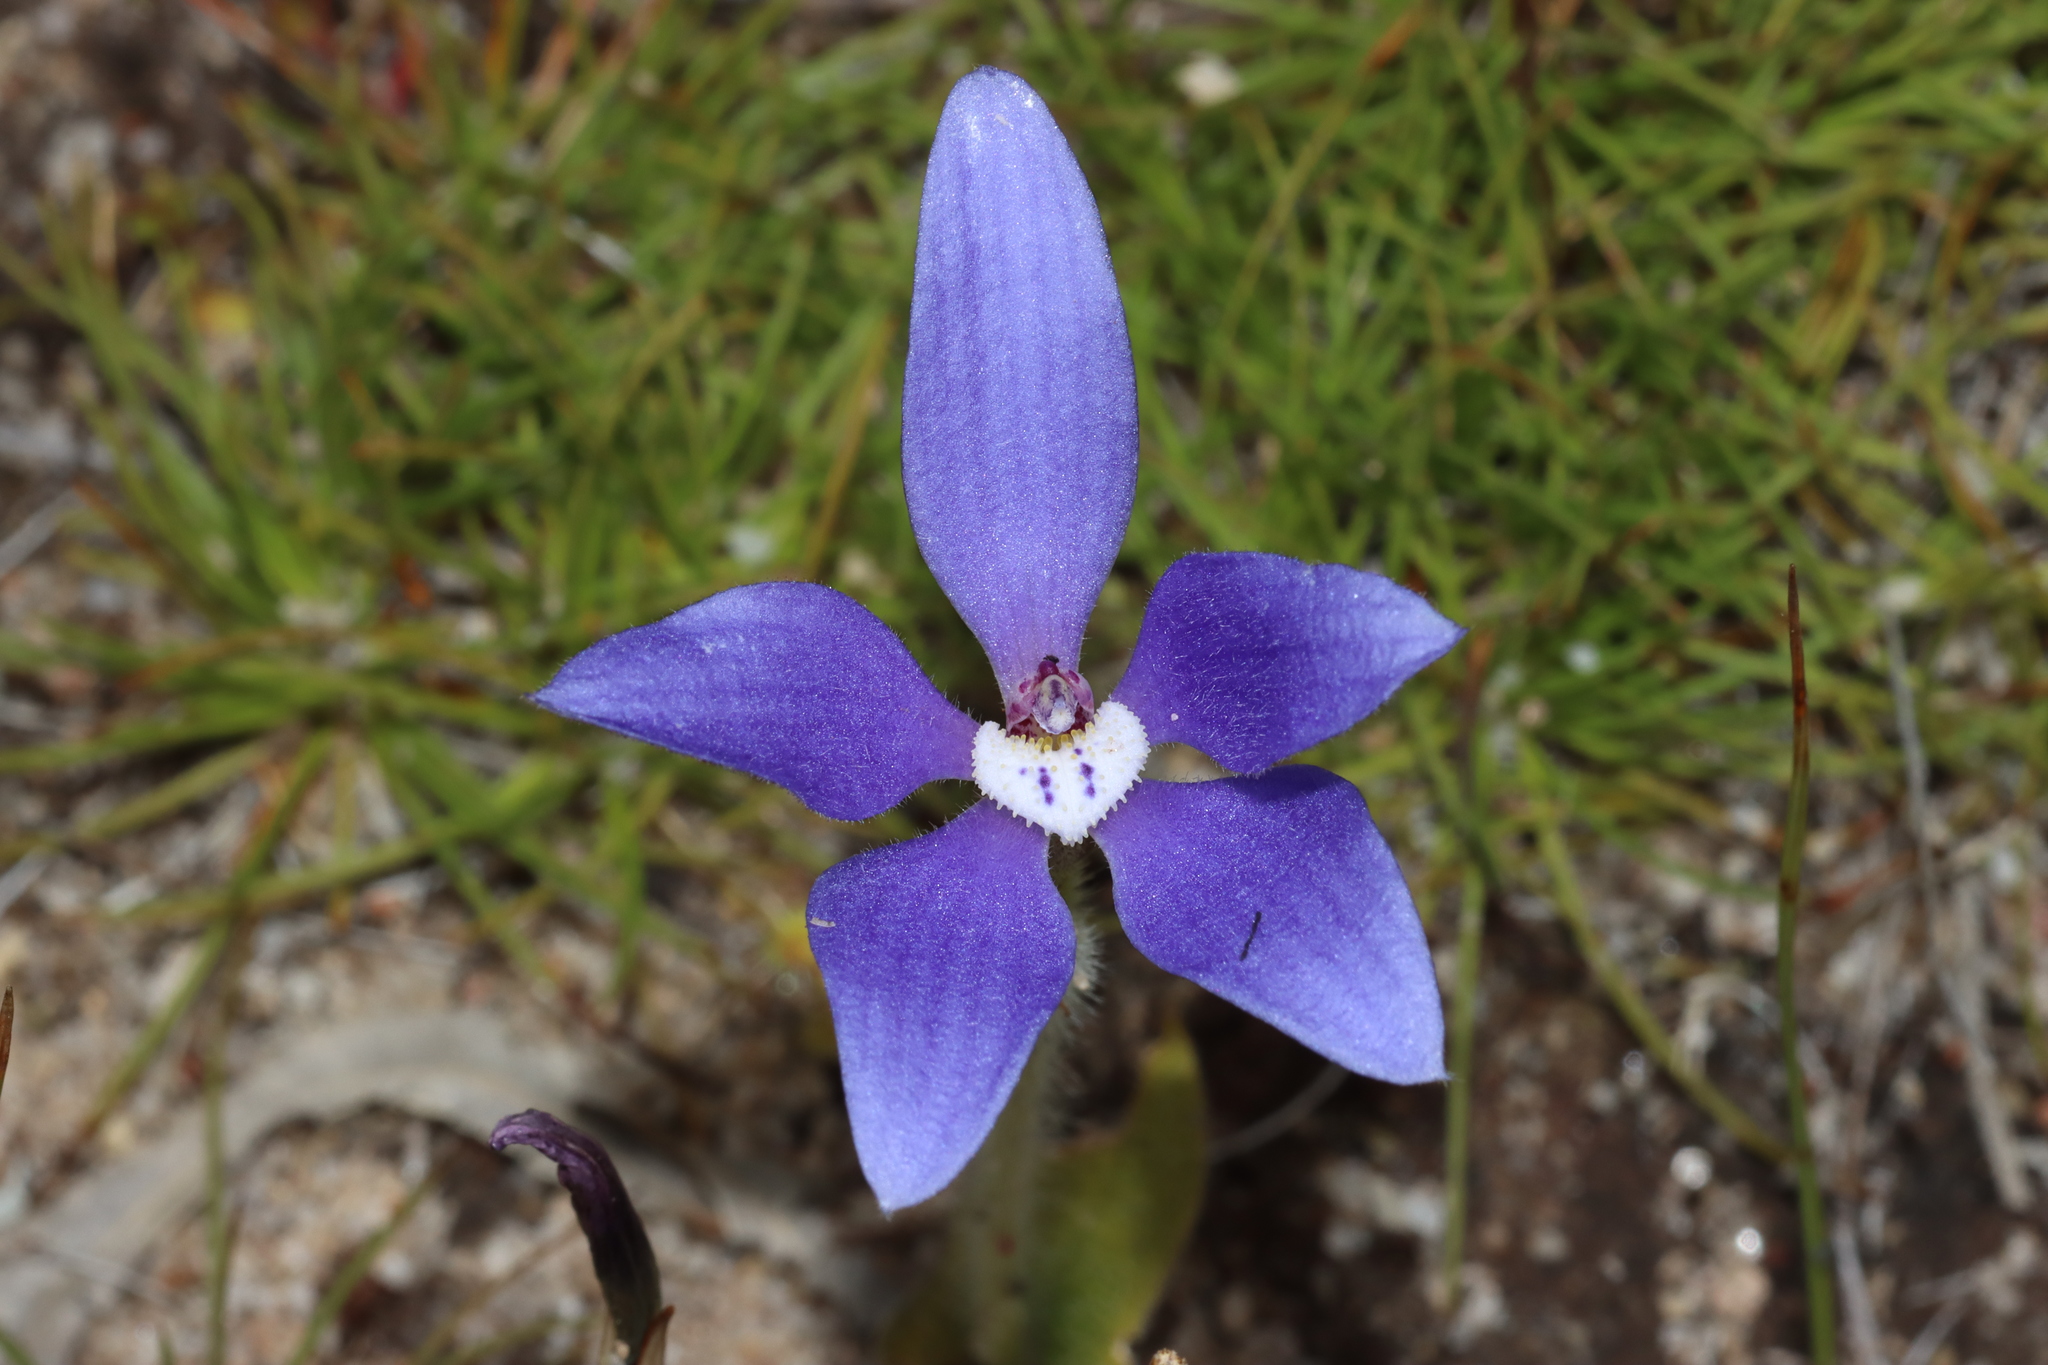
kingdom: Plantae
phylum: Tracheophyta
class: Liliopsida
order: Asparagales
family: Orchidaceae
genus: Caladenia
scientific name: Caladenia gemmata
